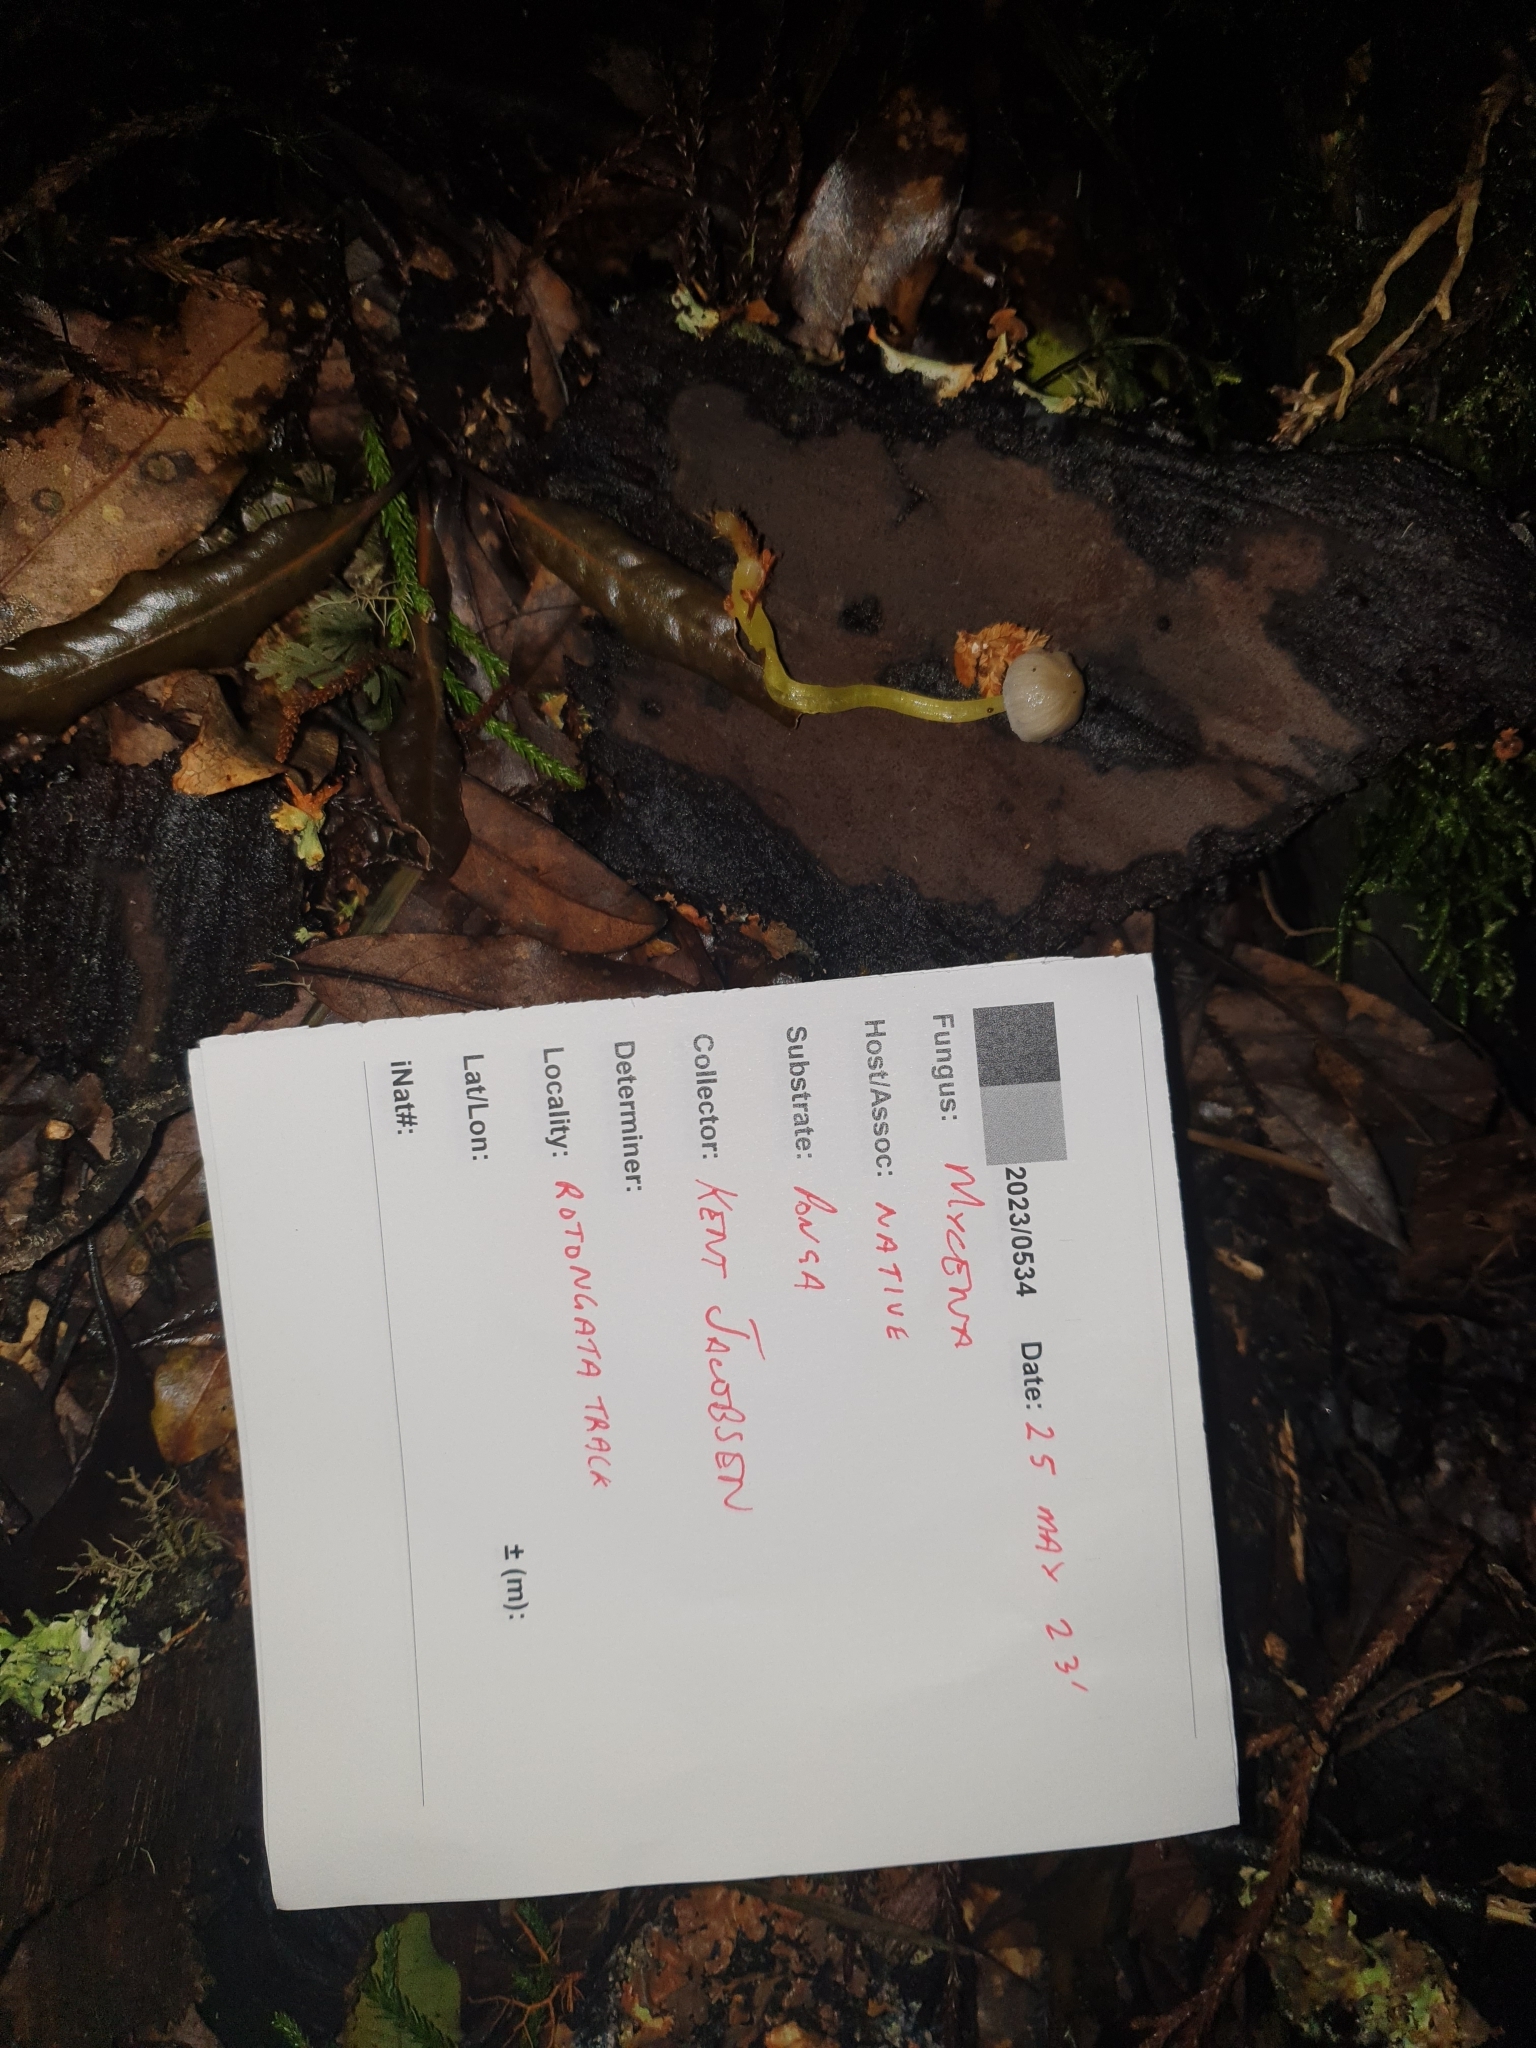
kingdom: Fungi
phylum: Basidiomycota
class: Agaricomycetes
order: Agaricales
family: Mycenaceae
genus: Mycena
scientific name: Mycena subviscosa
